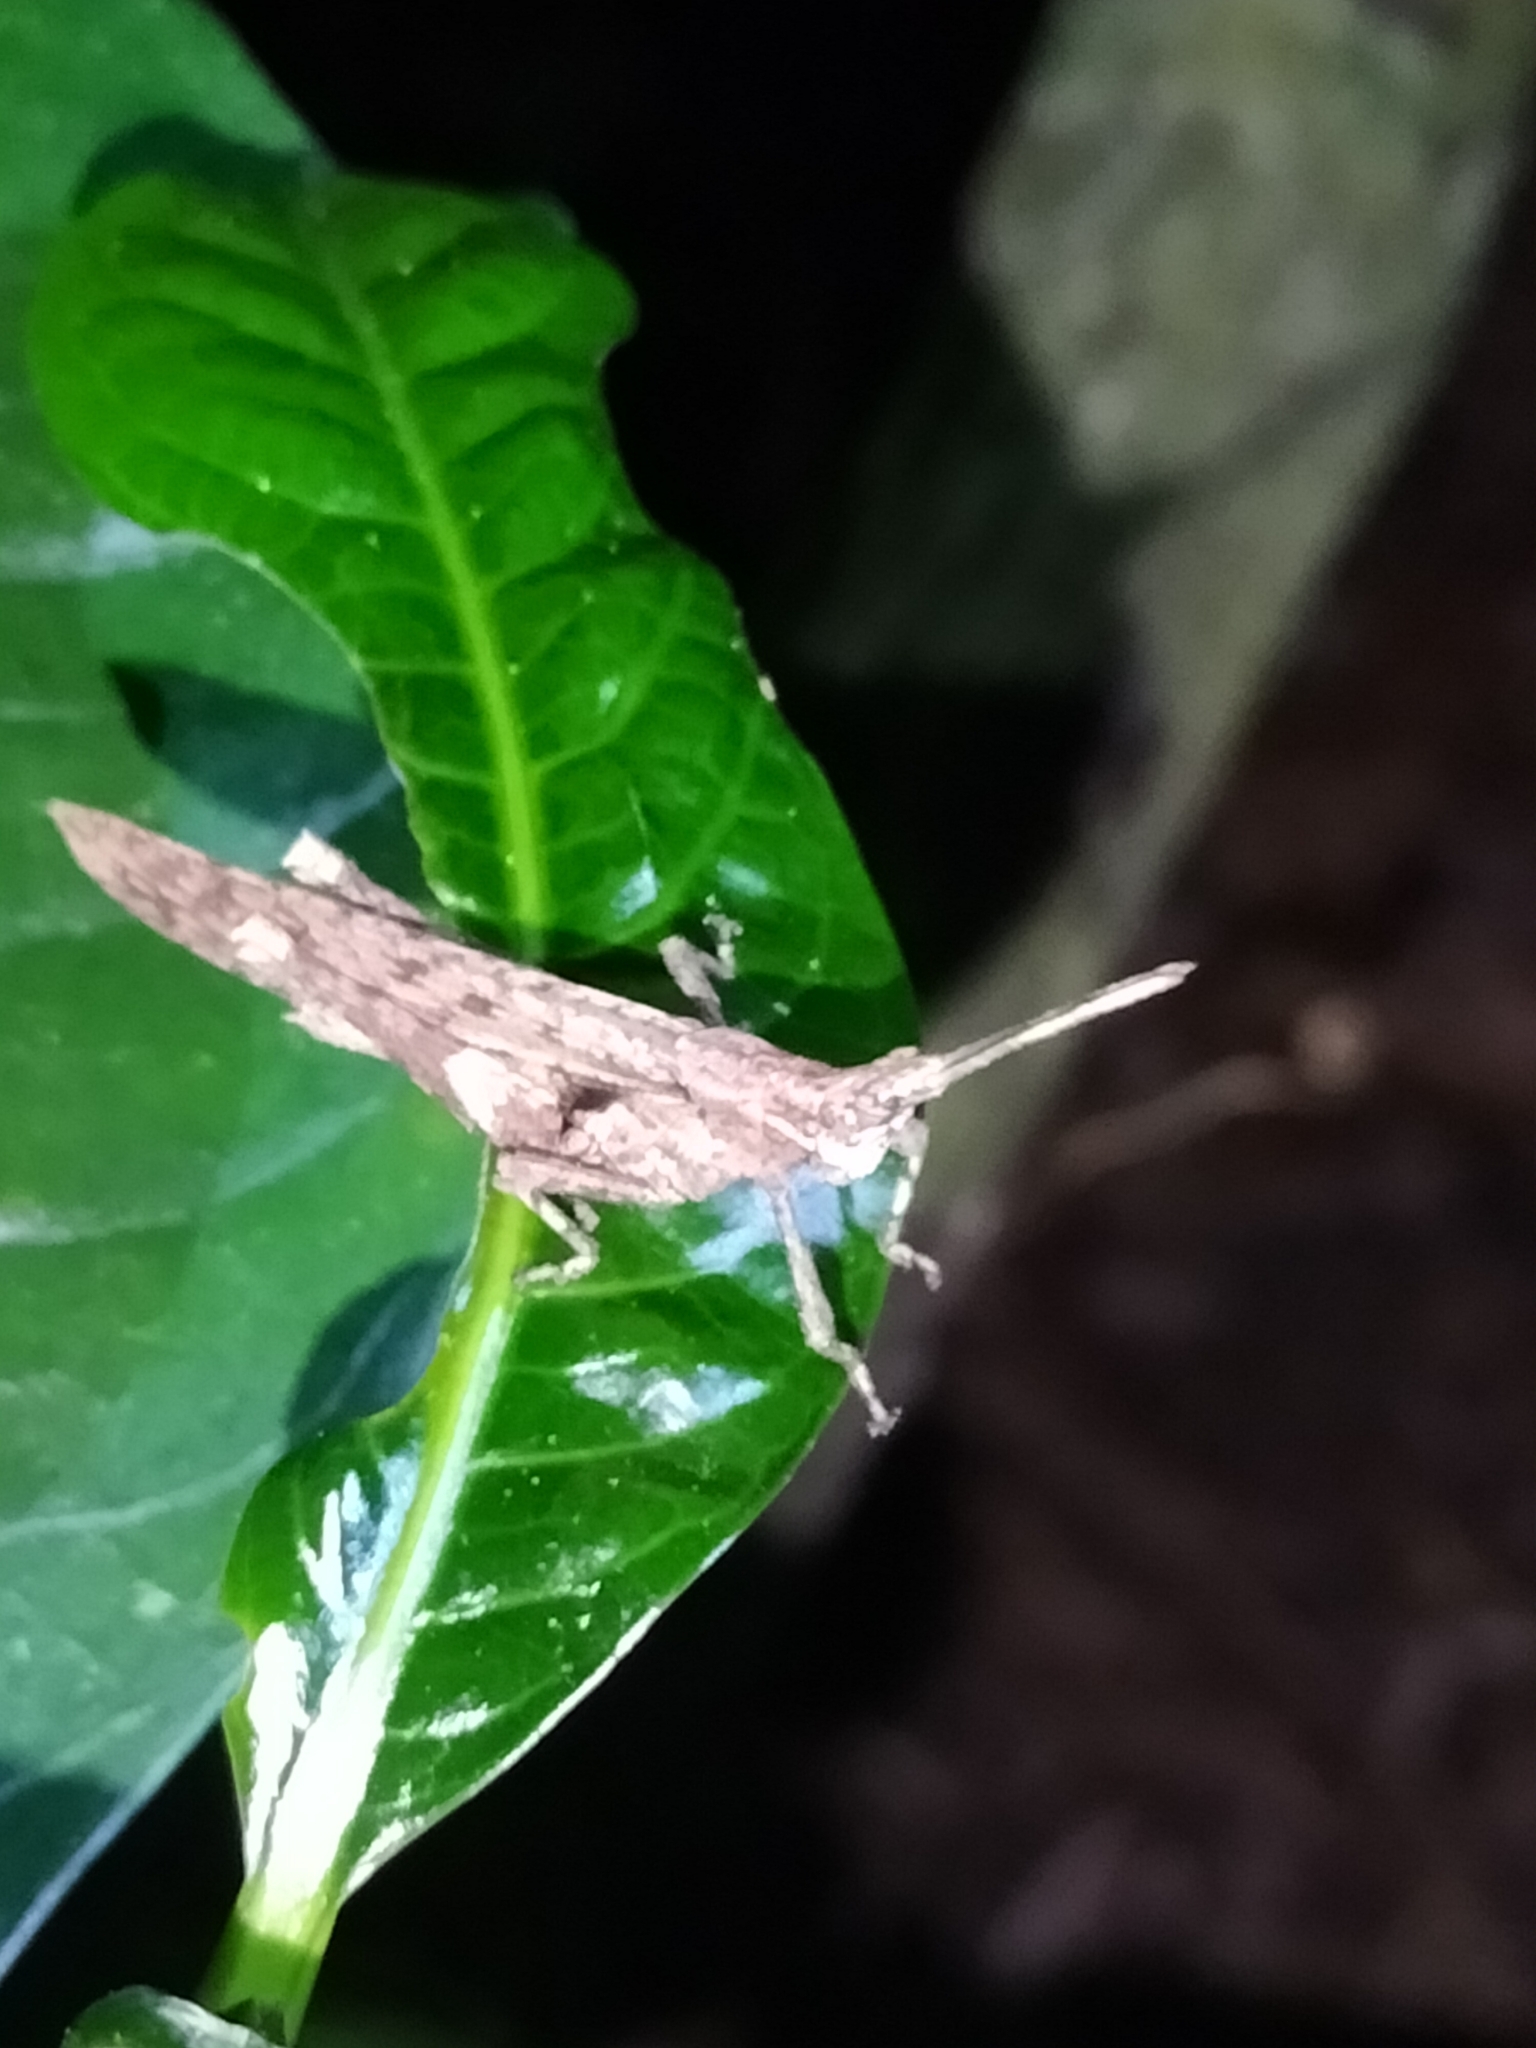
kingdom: Animalia
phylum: Arthropoda
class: Insecta
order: Orthoptera
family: Pyrgomorphidae
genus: Desmoptera
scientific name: Desmoptera truncatipennis
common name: Large forest pyrgomorph
